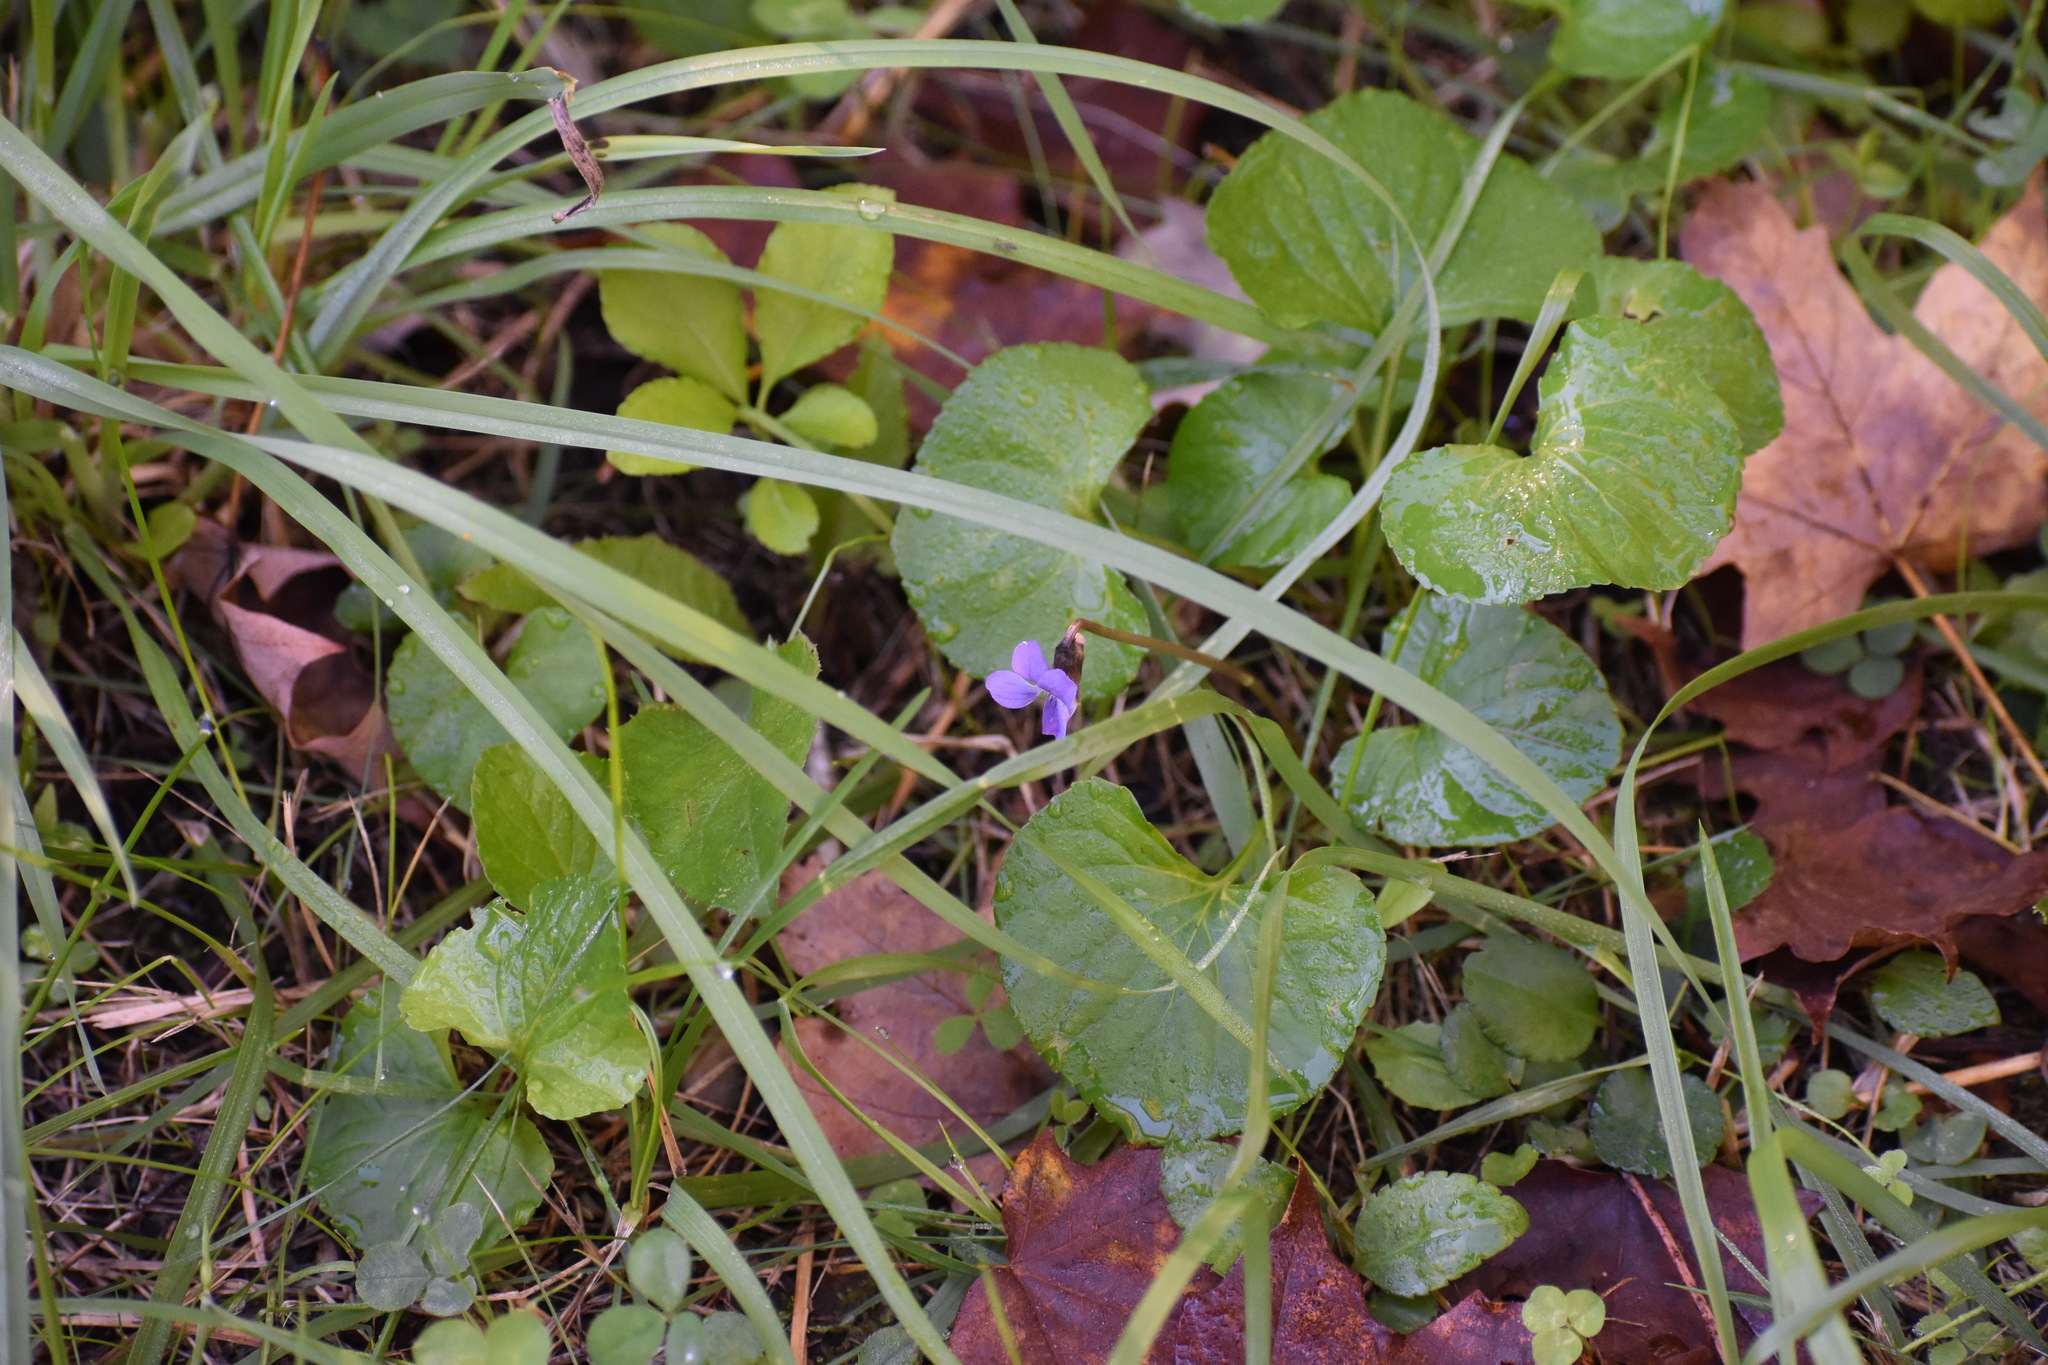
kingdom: Plantae
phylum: Tracheophyta
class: Magnoliopsida
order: Malpighiales
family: Violaceae
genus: Viola
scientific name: Viola sororia
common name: Dooryard violet
